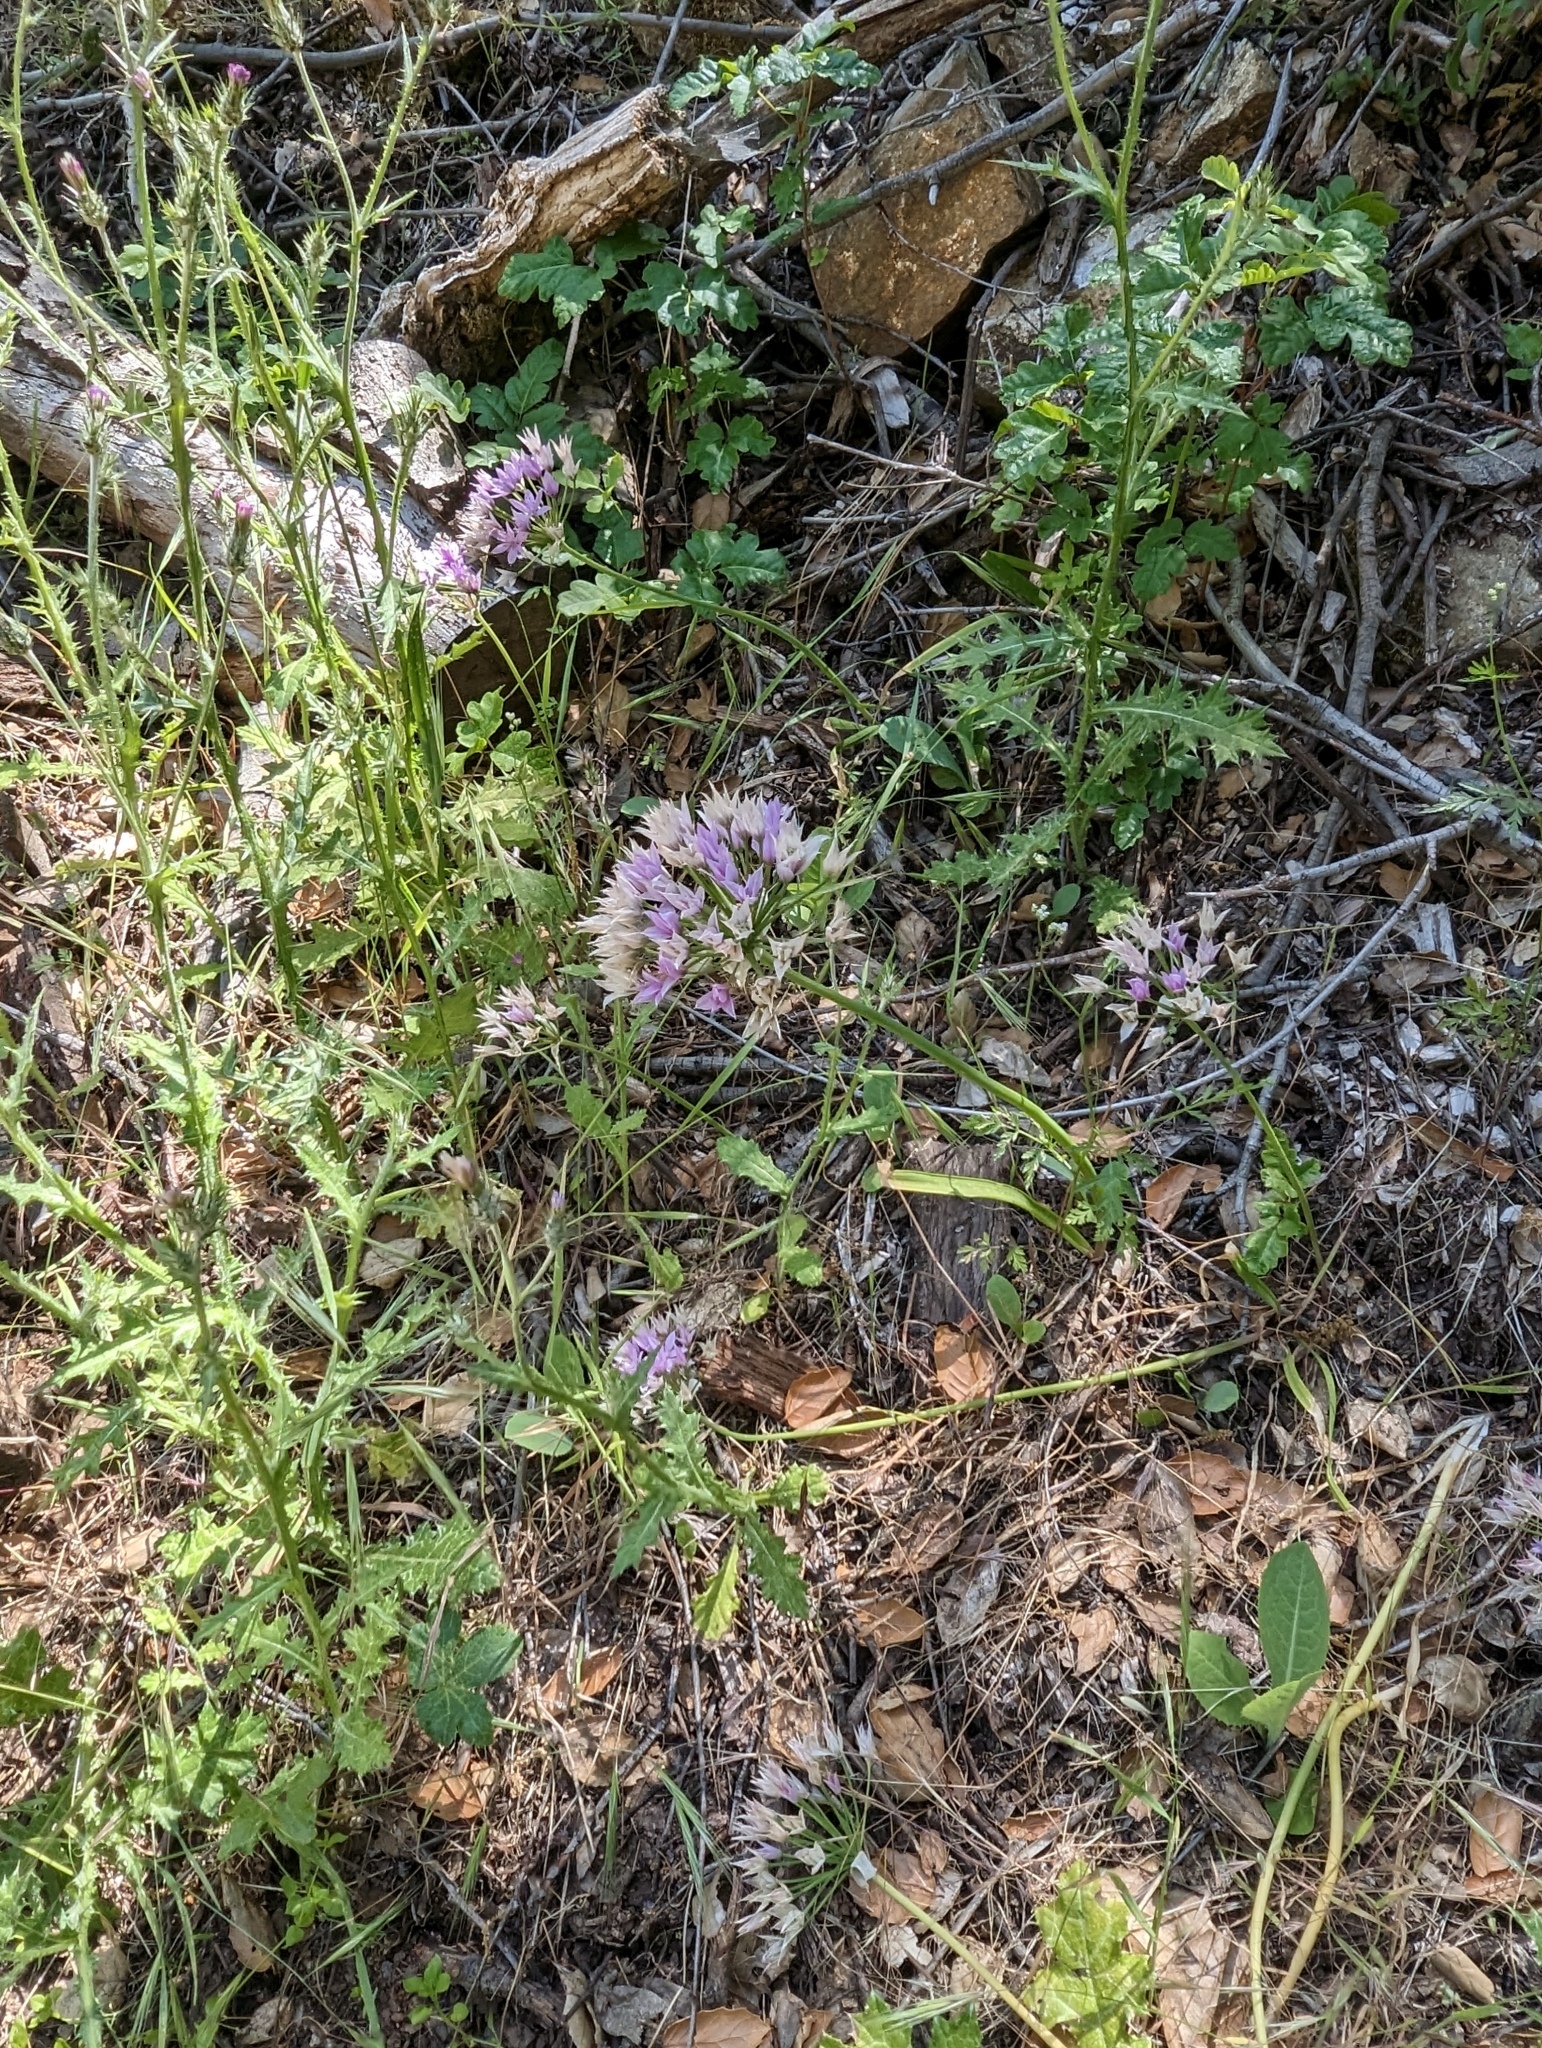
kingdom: Plantae
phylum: Tracheophyta
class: Liliopsida
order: Asparagales
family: Amaryllidaceae
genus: Allium
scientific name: Allium unifolium
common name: American garlic
